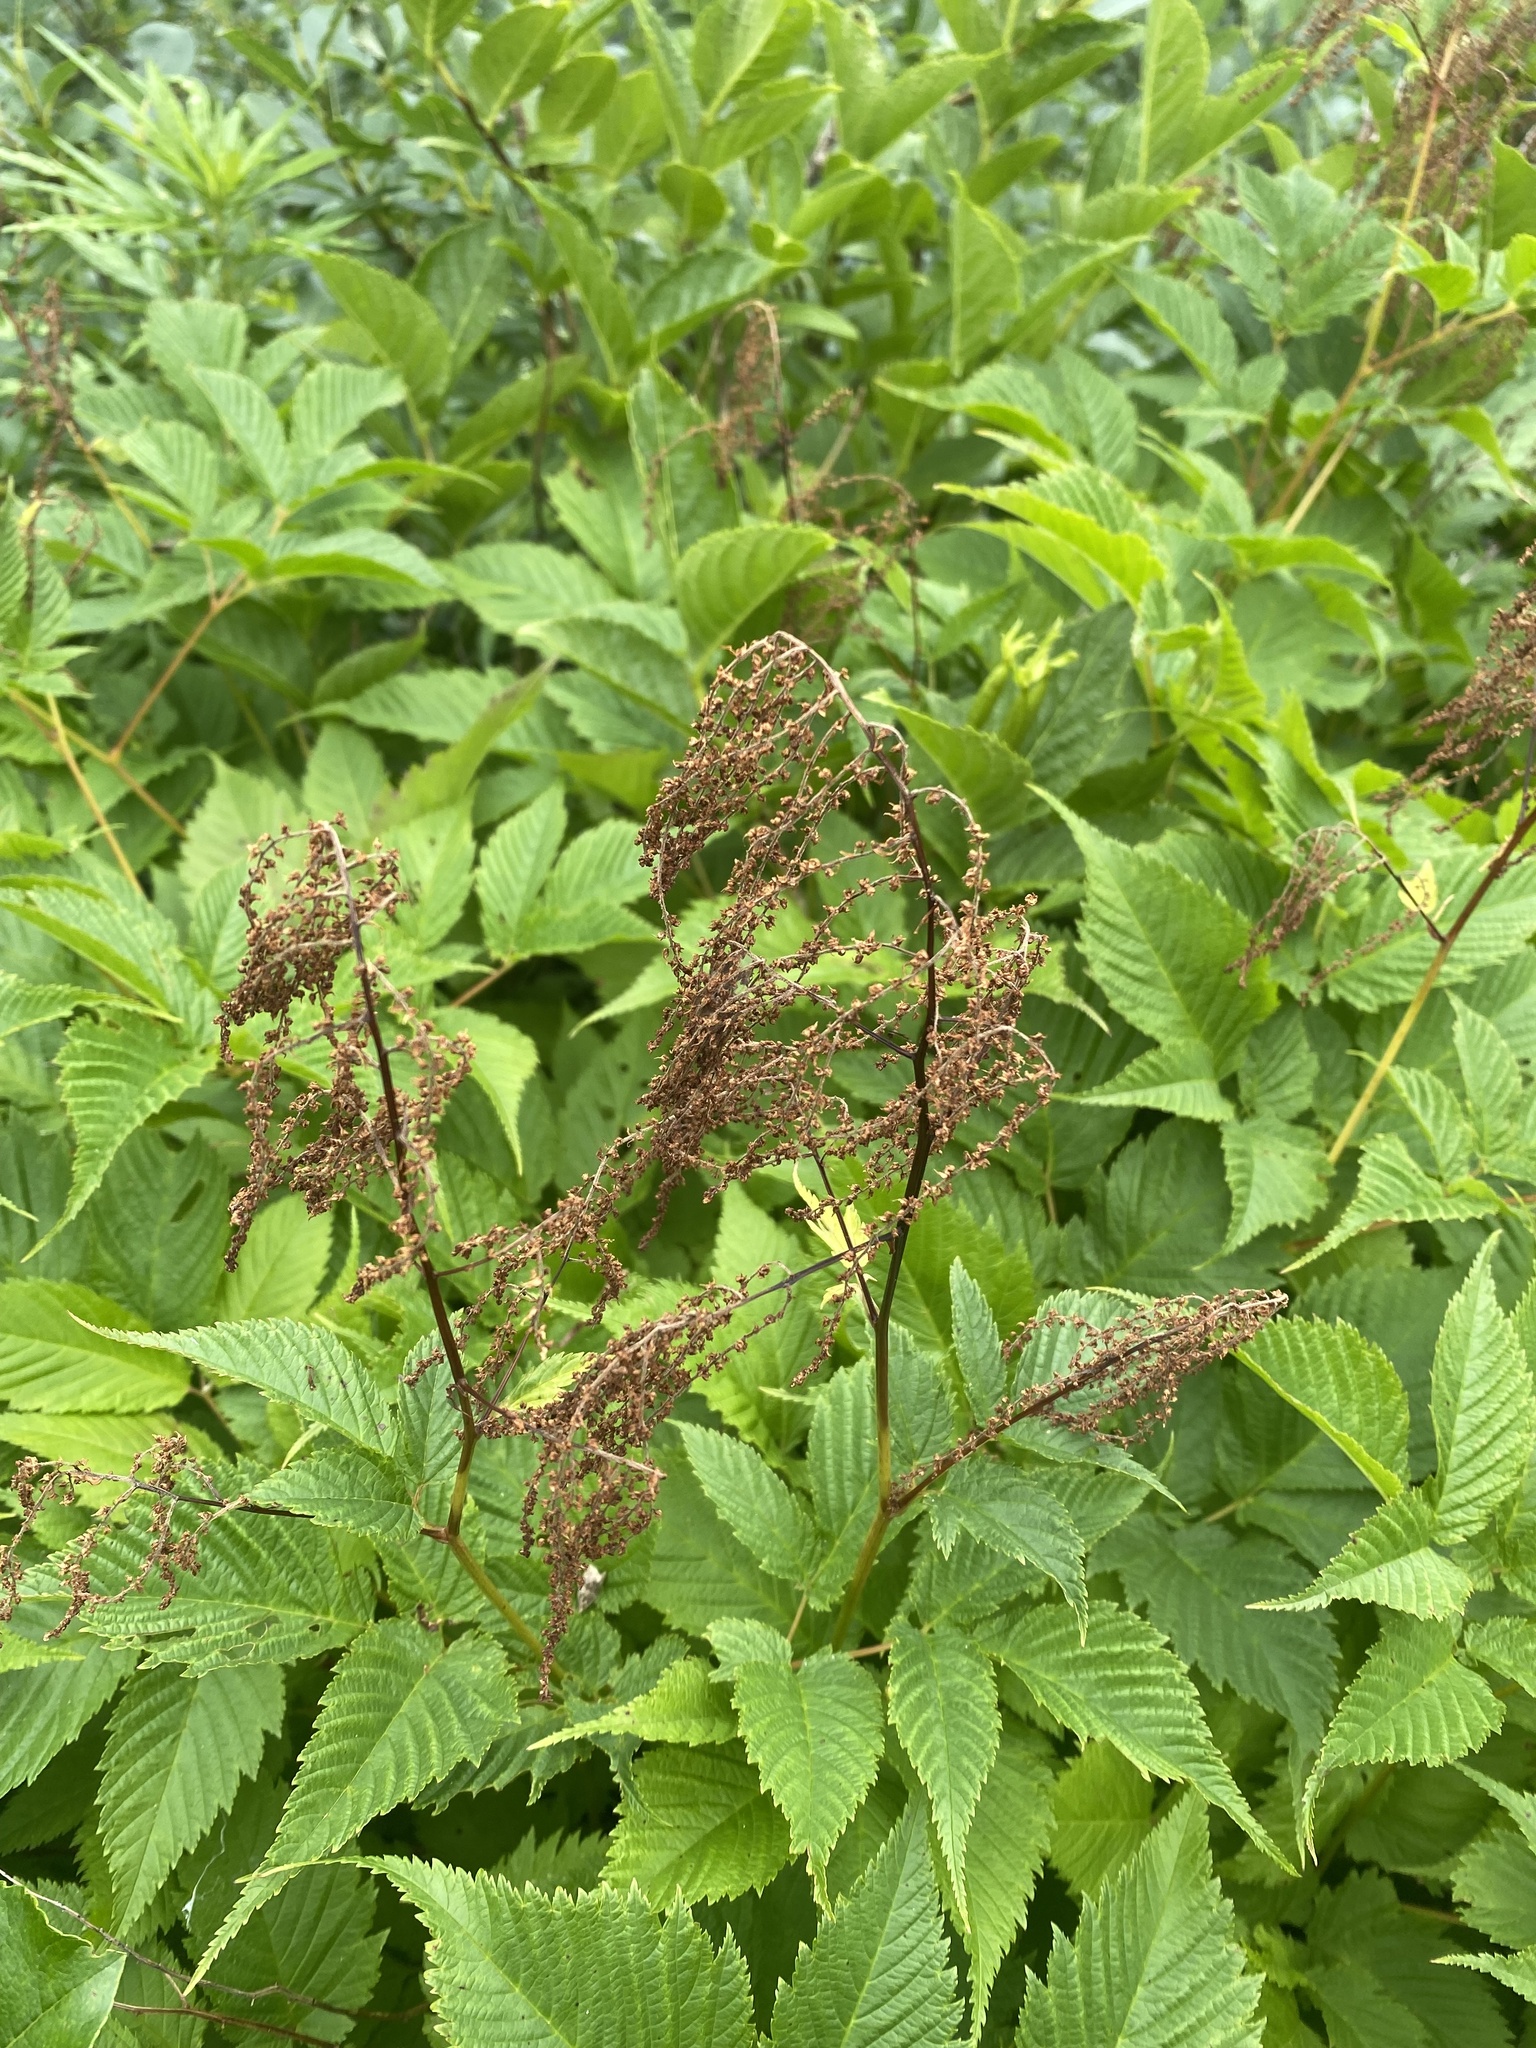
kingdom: Plantae
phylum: Tracheophyta
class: Magnoliopsida
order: Rosales
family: Rosaceae
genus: Aruncus
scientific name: Aruncus dioicus
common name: Buck's-beard
